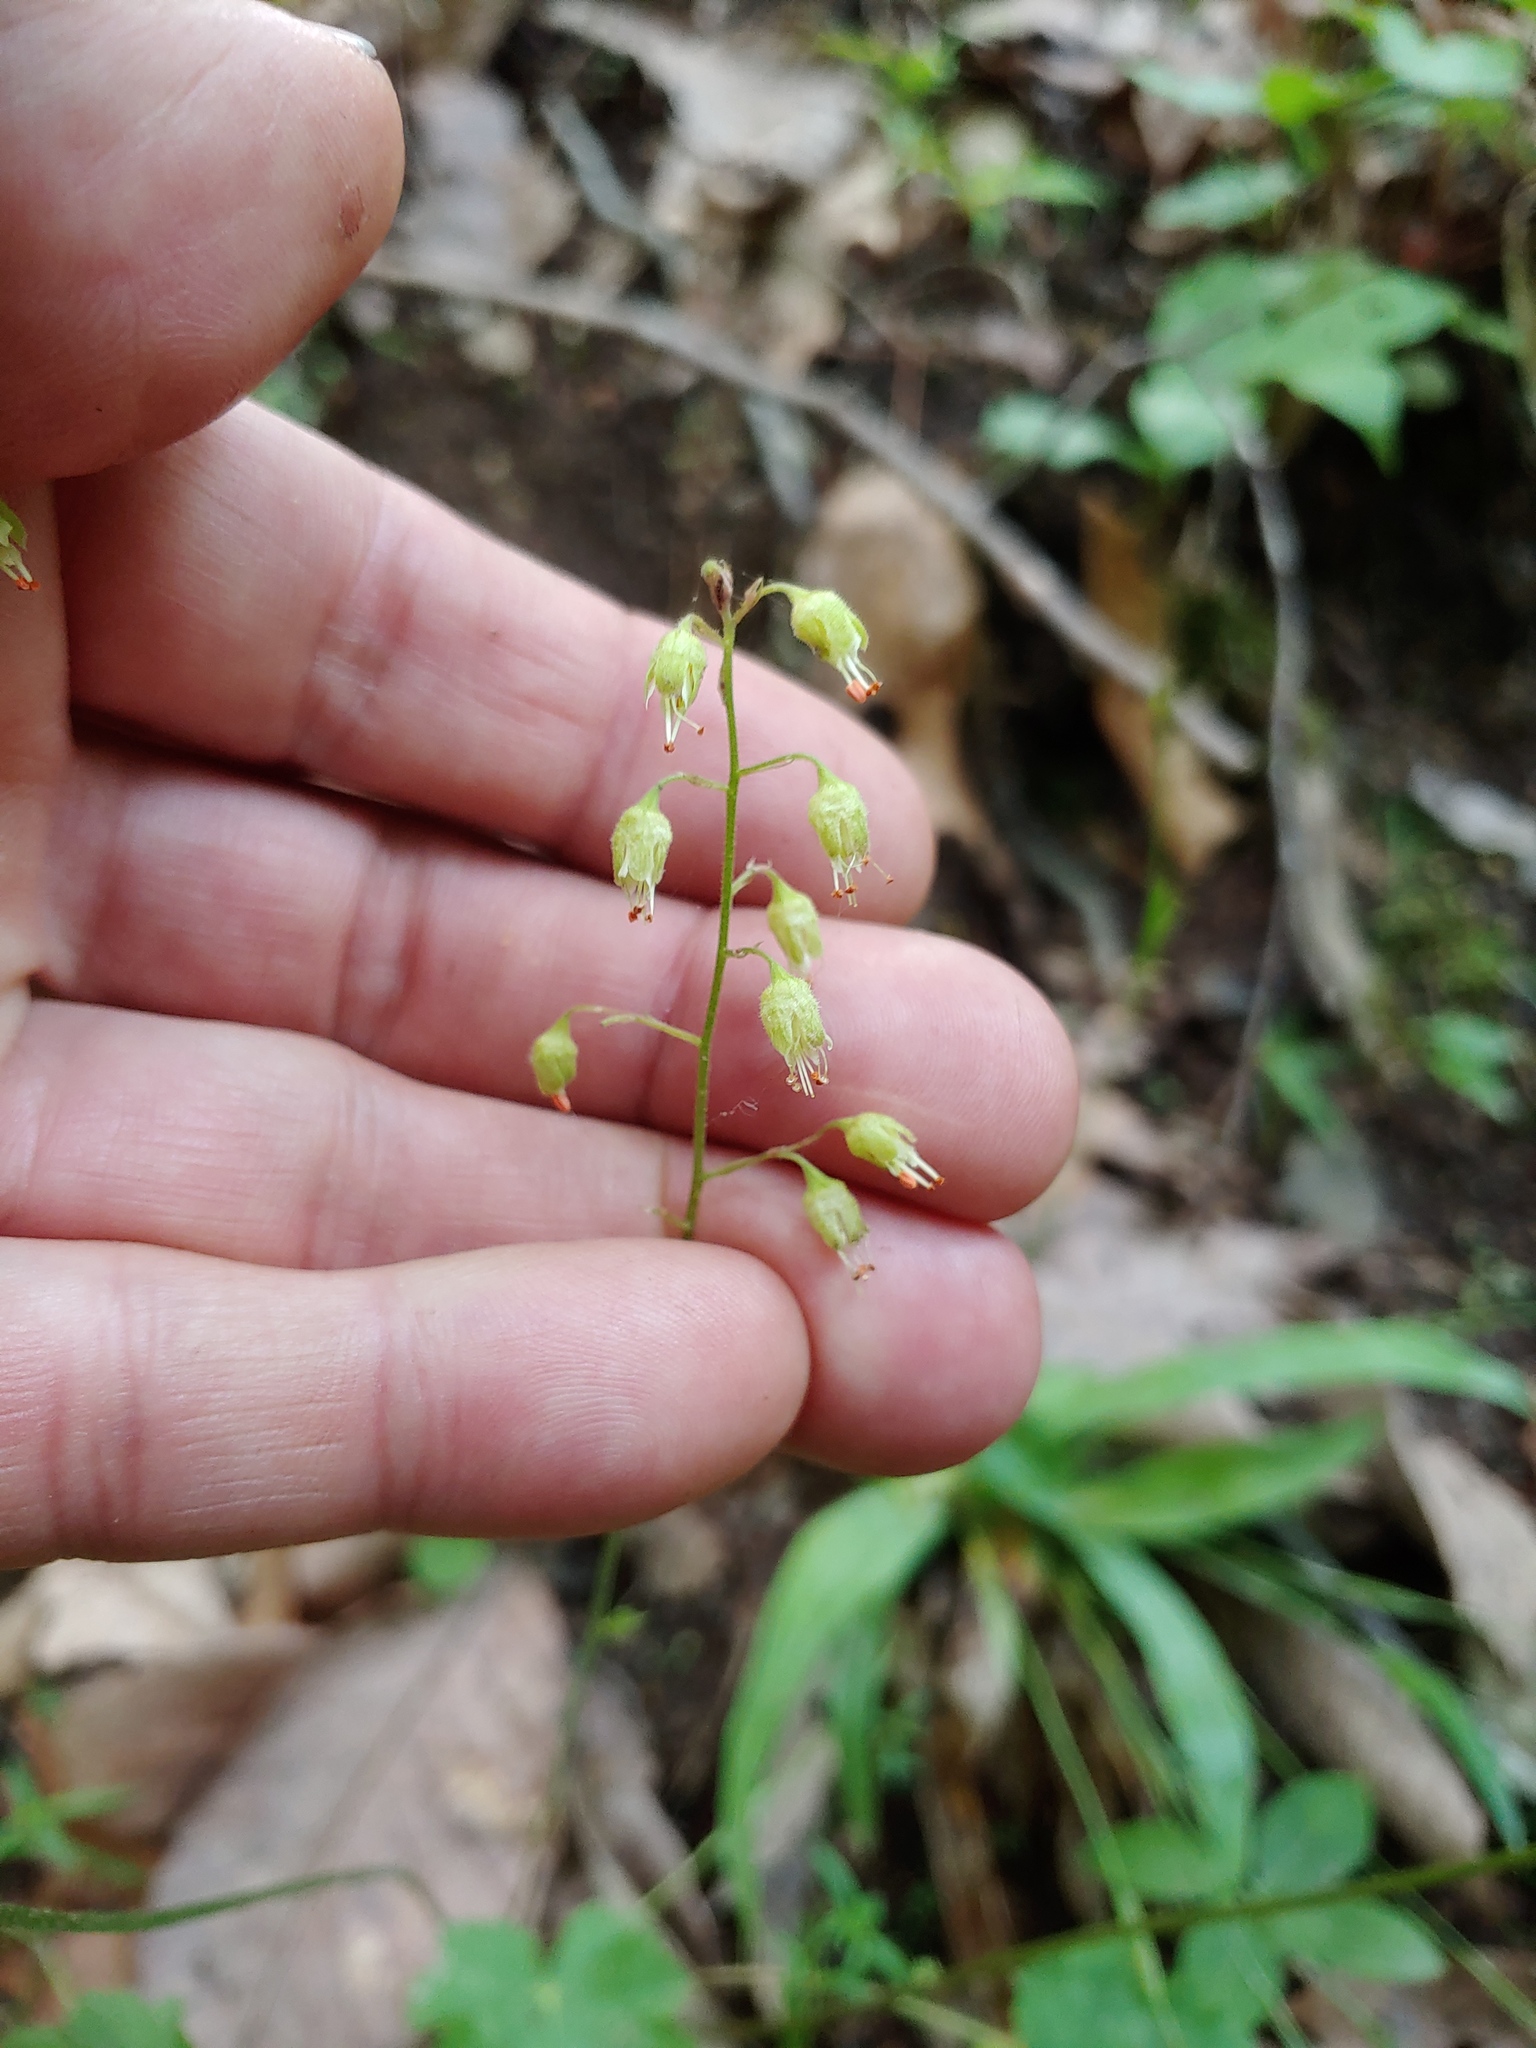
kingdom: Plantae
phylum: Tracheophyta
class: Magnoliopsida
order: Saxifragales
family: Saxifragaceae
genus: Heuchera
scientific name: Heuchera americana
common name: Alumroot
